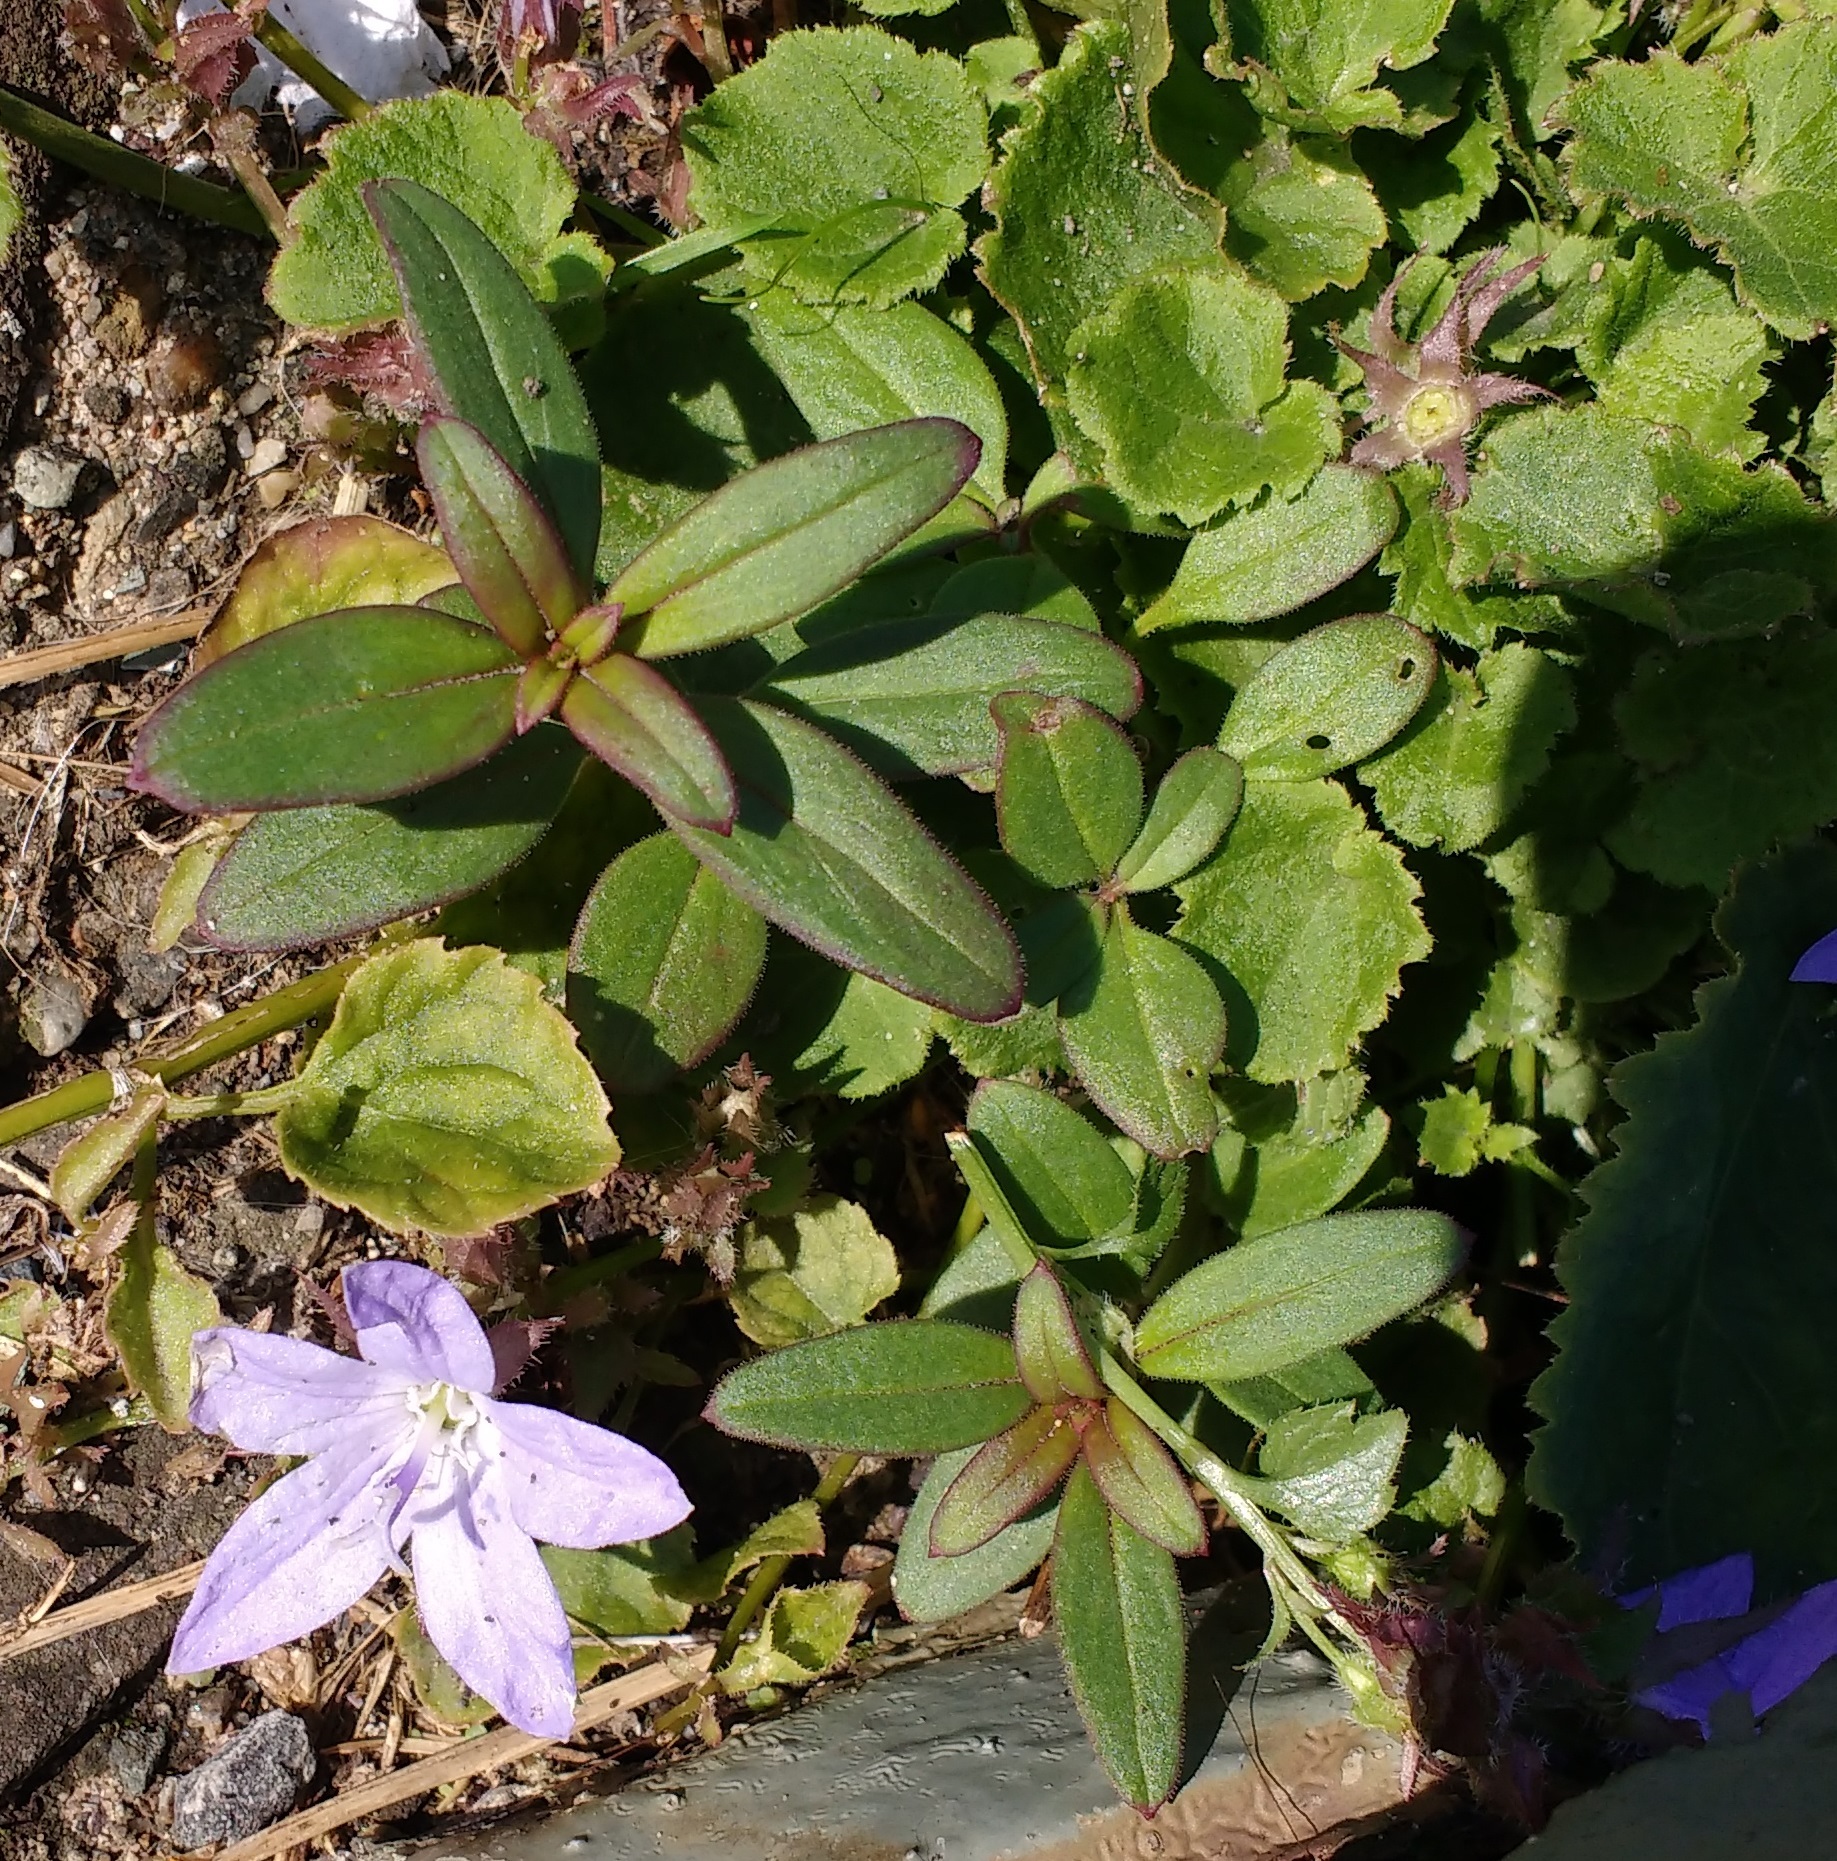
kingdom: Plantae
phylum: Tracheophyta
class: Magnoliopsida
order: Asterales
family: Campanulaceae
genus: Campanula
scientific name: Campanula poscharskyana
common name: Trailing bellflower
